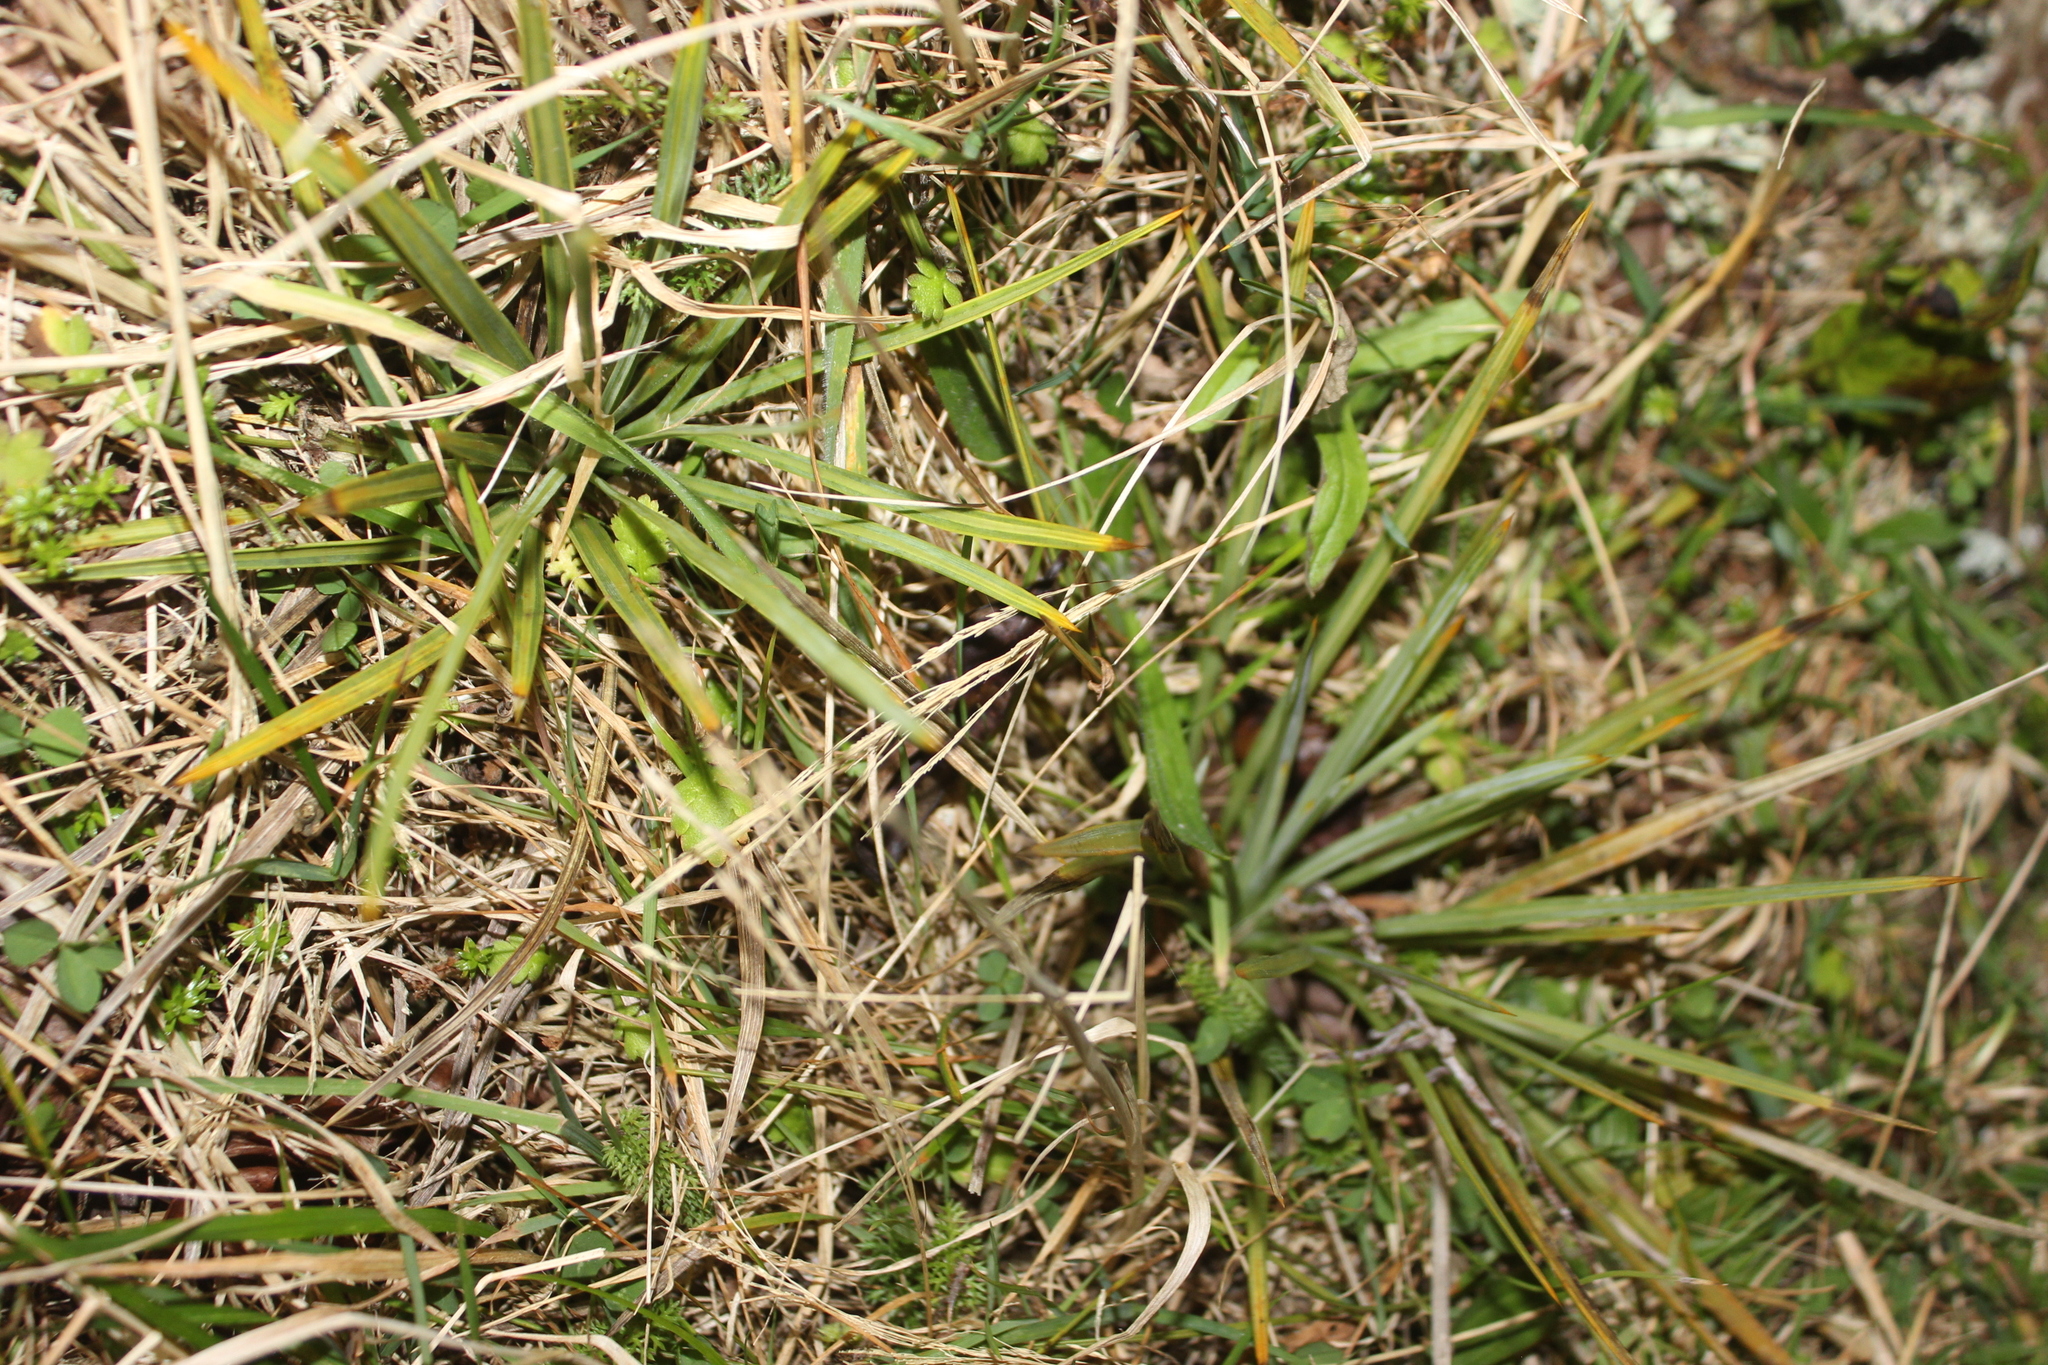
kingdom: Plantae
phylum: Tracheophyta
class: Magnoliopsida
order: Apiales
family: Apiaceae
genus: Aciphylla
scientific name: Aciphylla squarrosa
